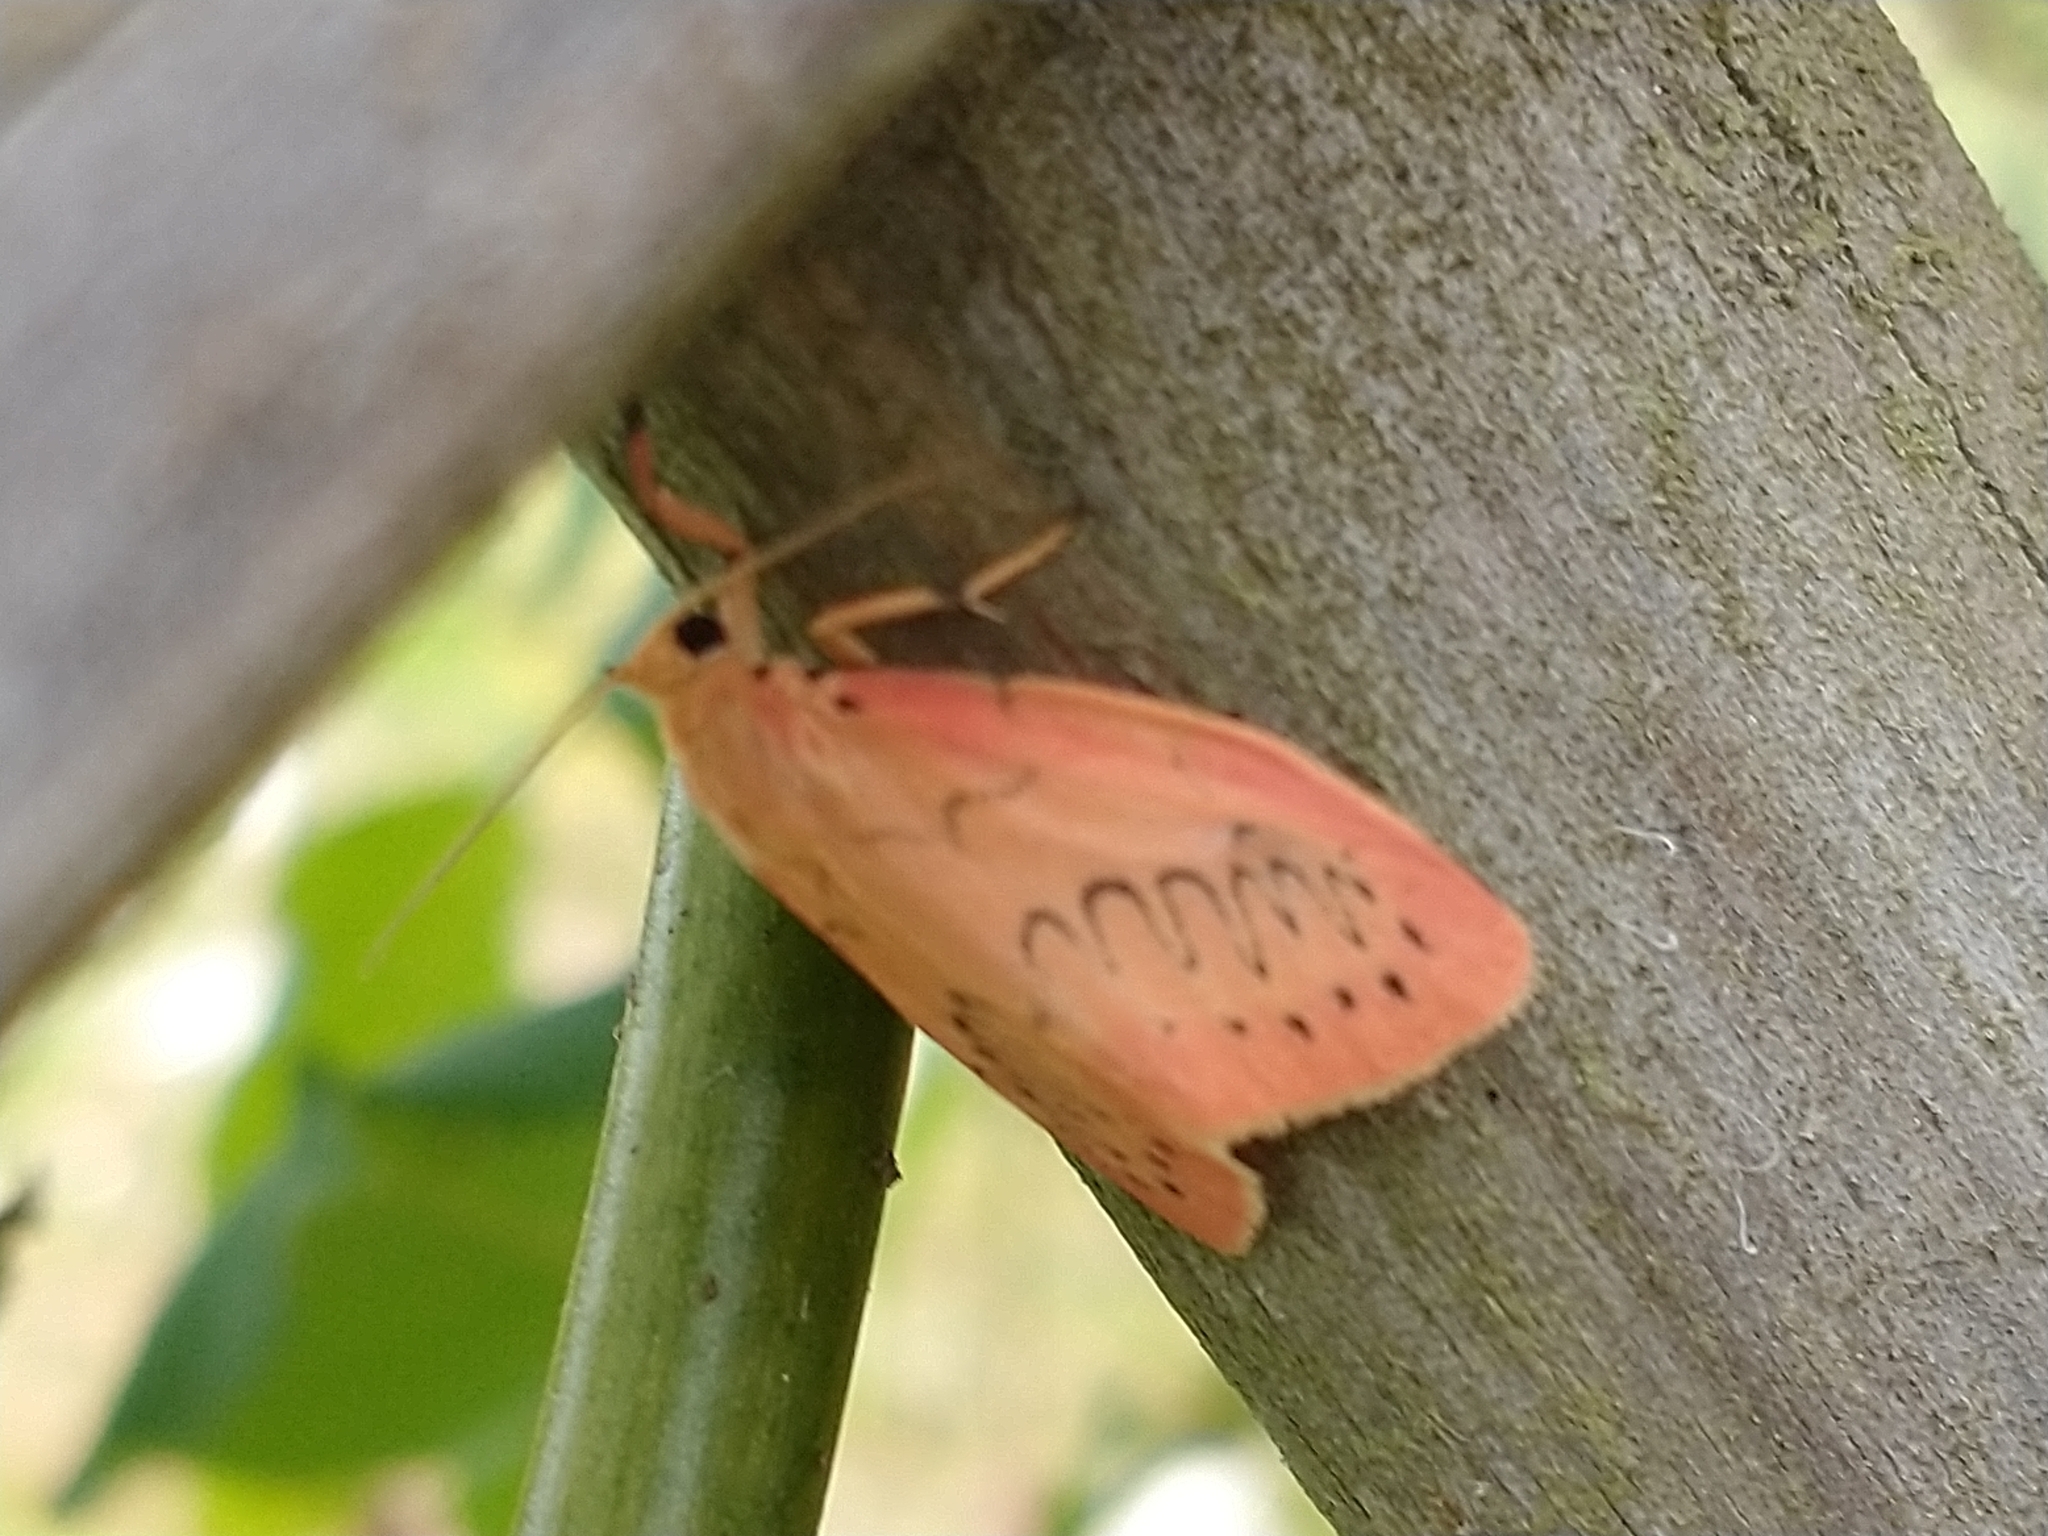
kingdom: Animalia
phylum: Arthropoda
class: Insecta
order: Lepidoptera
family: Erebidae
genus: Miltochrista
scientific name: Miltochrista miniata
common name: Rosy footman
